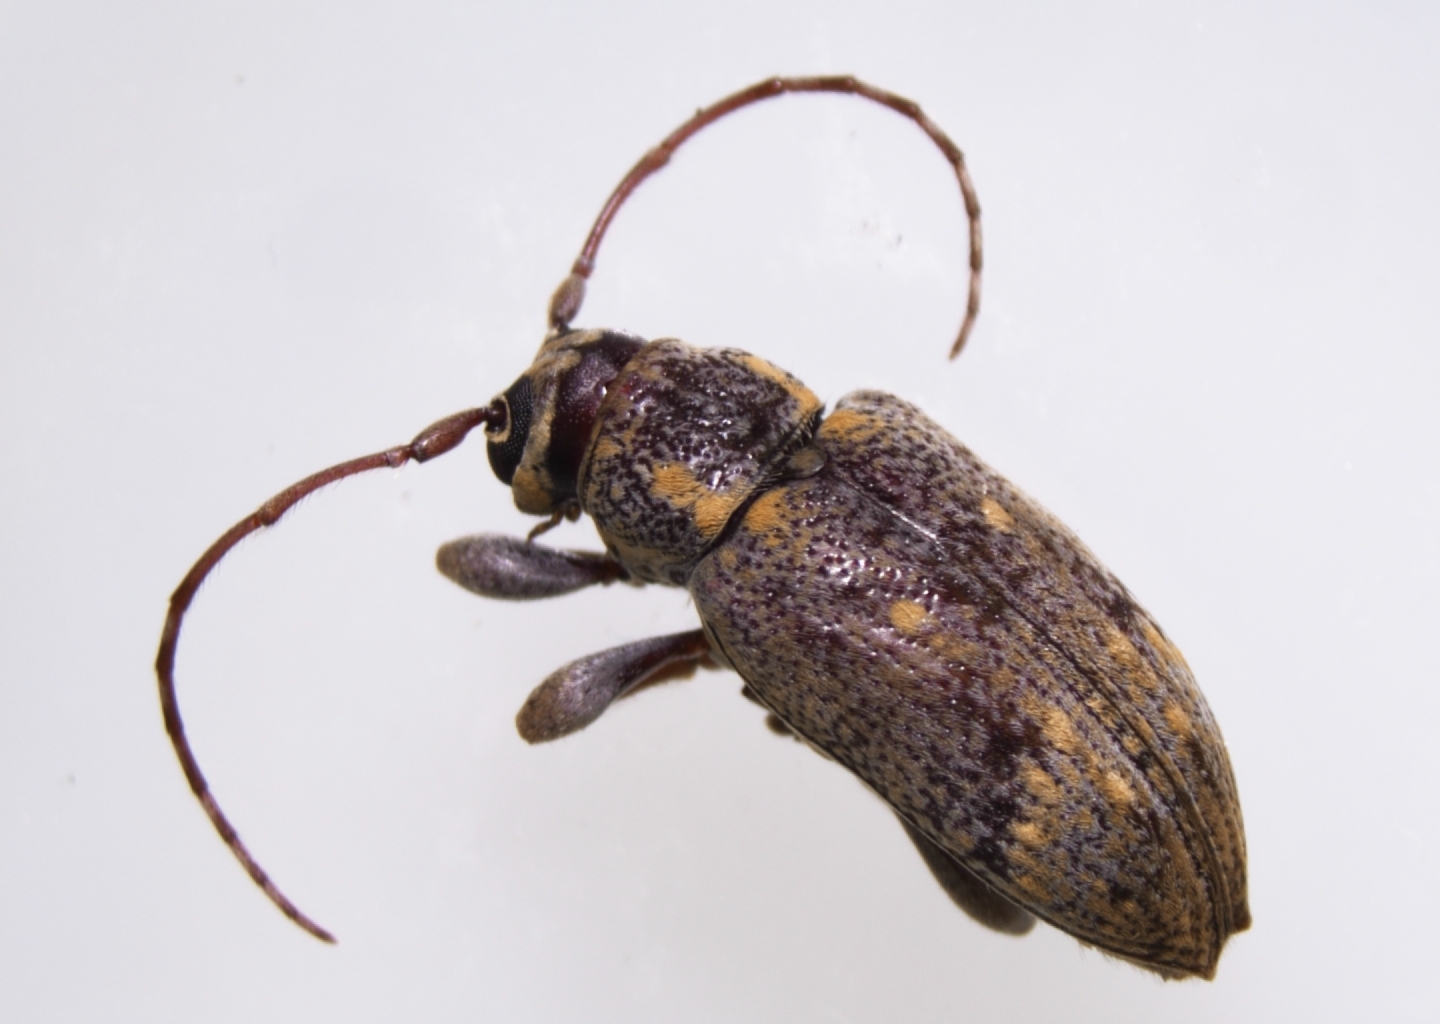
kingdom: Animalia
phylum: Arthropoda
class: Insecta
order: Coleoptera
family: Cerambycidae
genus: Oopsis
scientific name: Oopsis nutator
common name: Oopsis long-horned beetle
